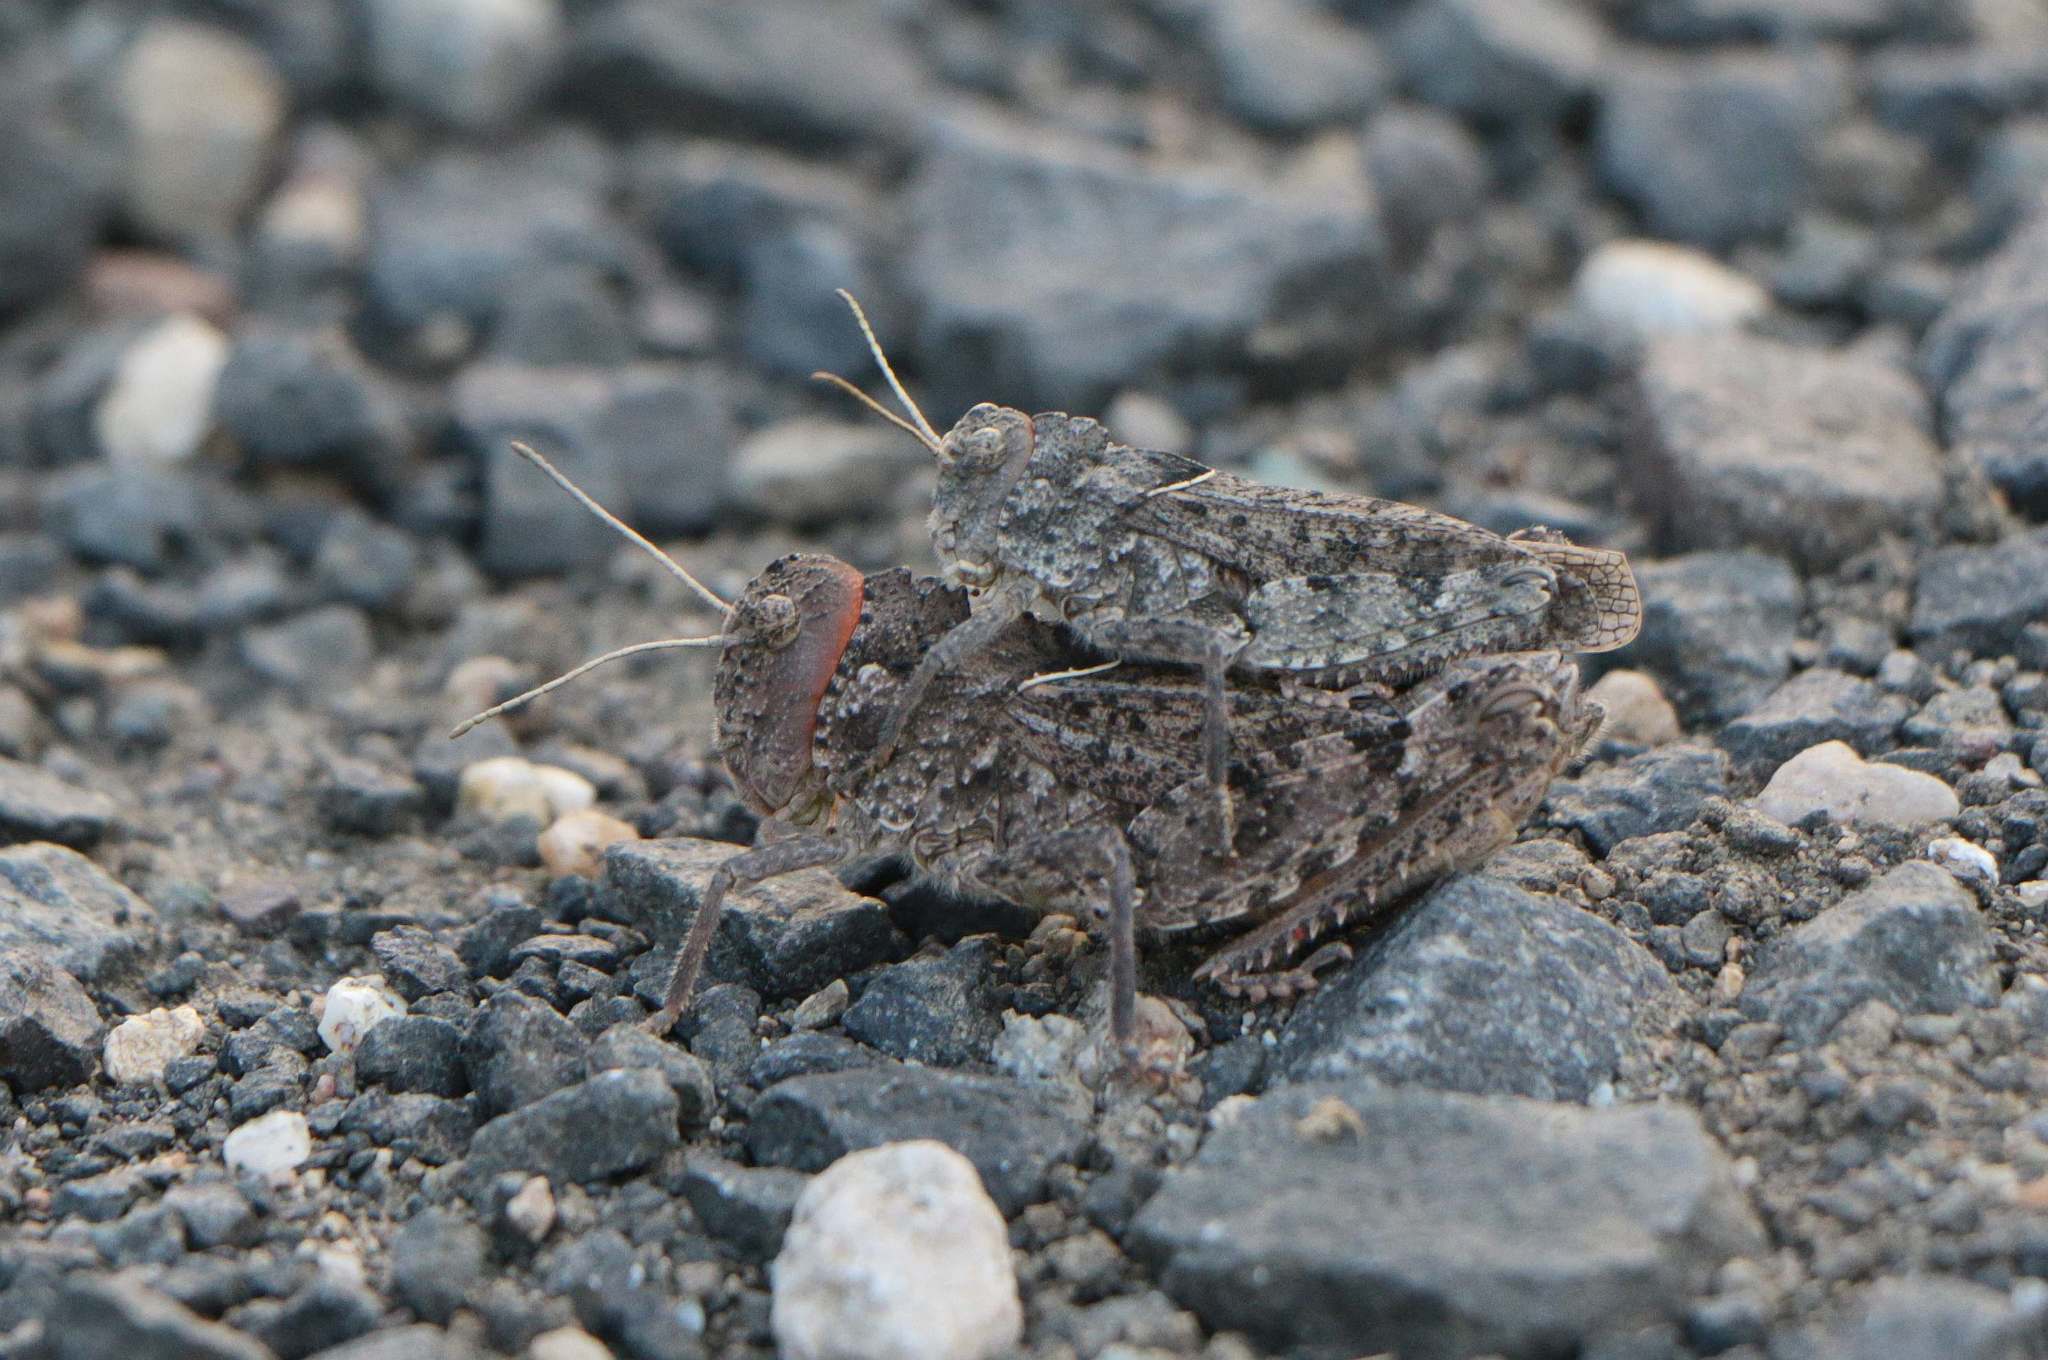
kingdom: Animalia
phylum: Arthropoda
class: Insecta
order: Orthoptera
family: Pamphagidae
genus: Asiotmethis
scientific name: Asiotmethis limbatus
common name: Bordered stone grasshopper
